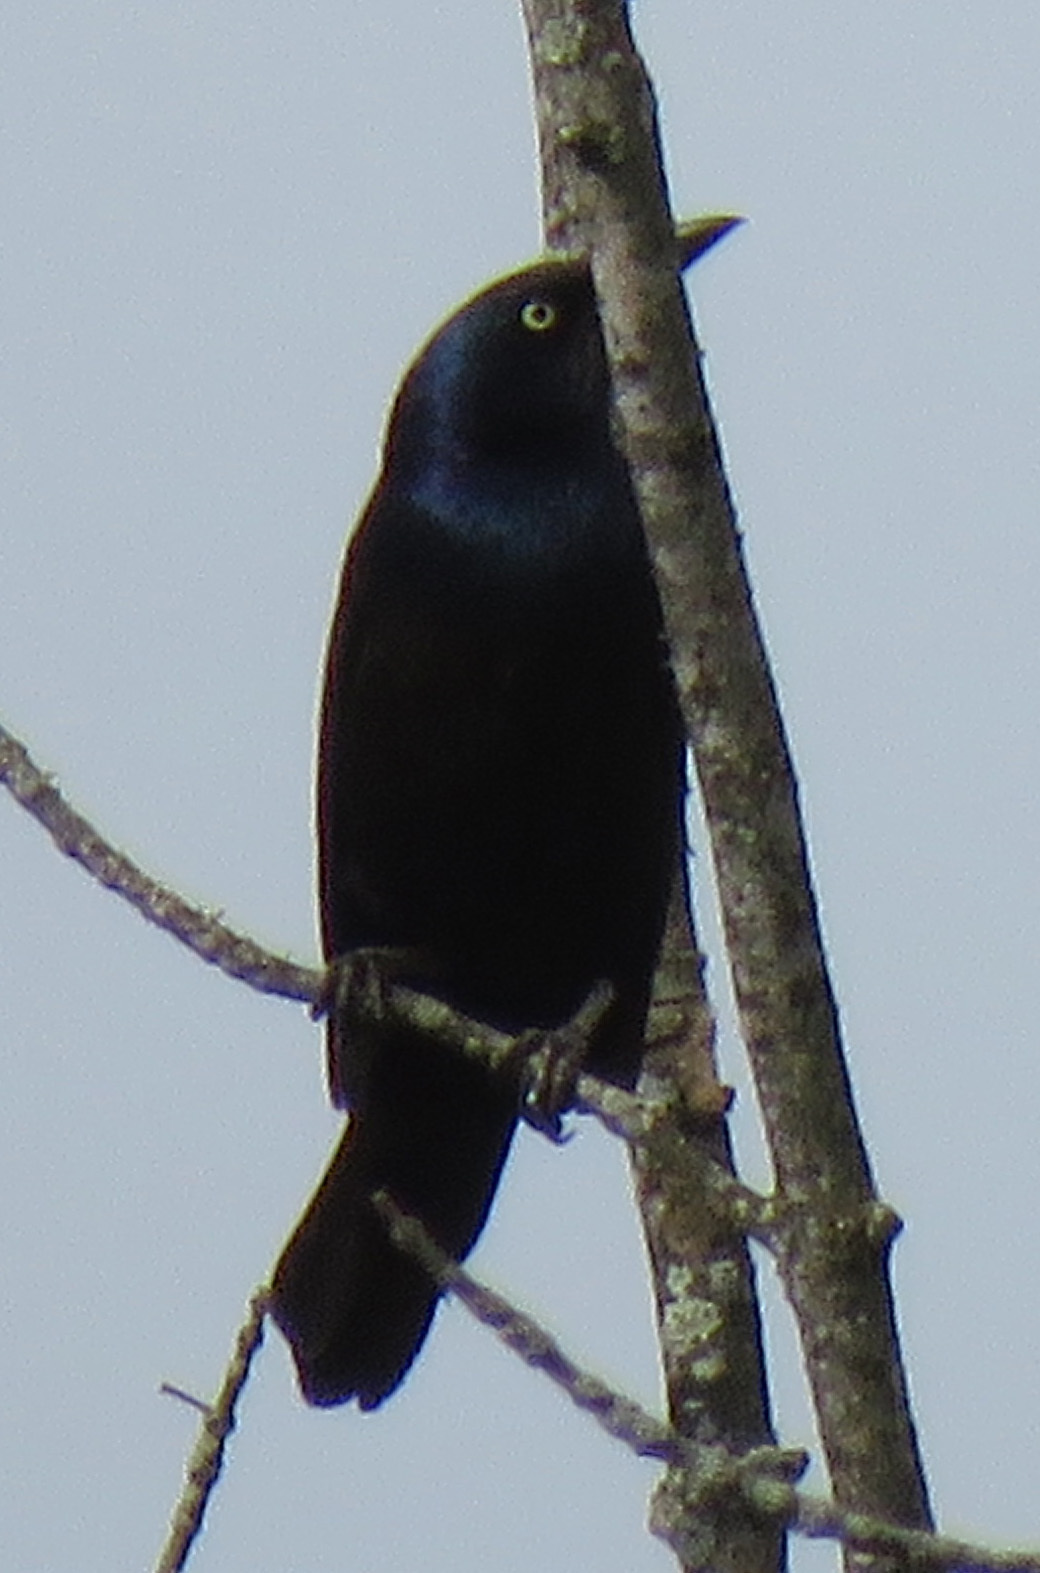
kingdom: Animalia
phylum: Chordata
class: Aves
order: Passeriformes
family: Icteridae
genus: Quiscalus
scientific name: Quiscalus quiscula
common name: Common grackle
